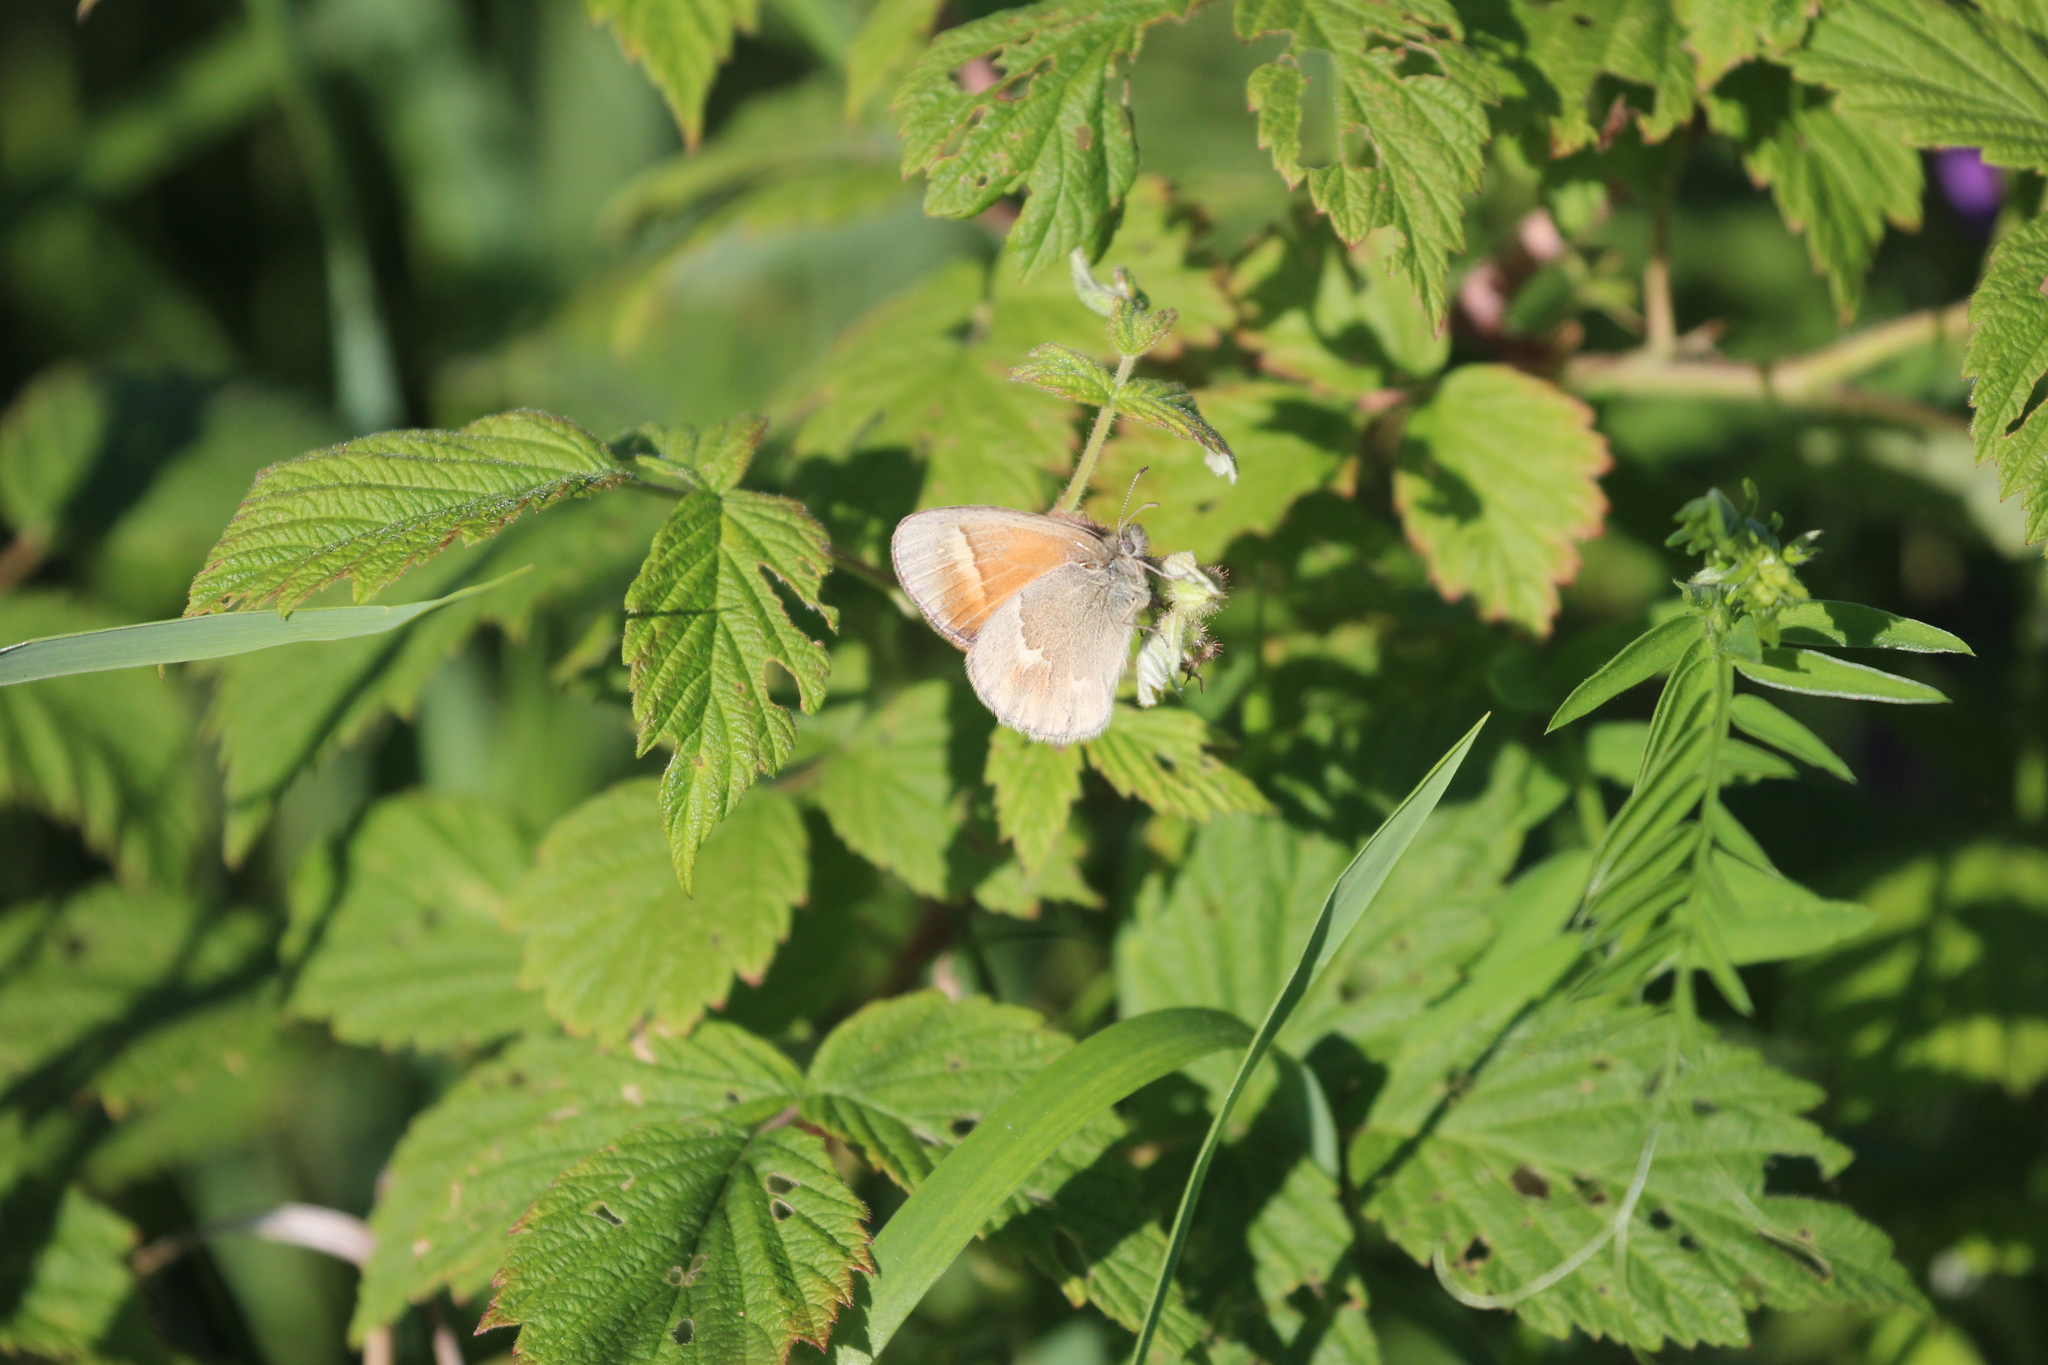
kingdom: Animalia
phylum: Arthropoda
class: Insecta
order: Lepidoptera
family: Nymphalidae
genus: Coenonympha
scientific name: Coenonympha california
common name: Common ringlet
